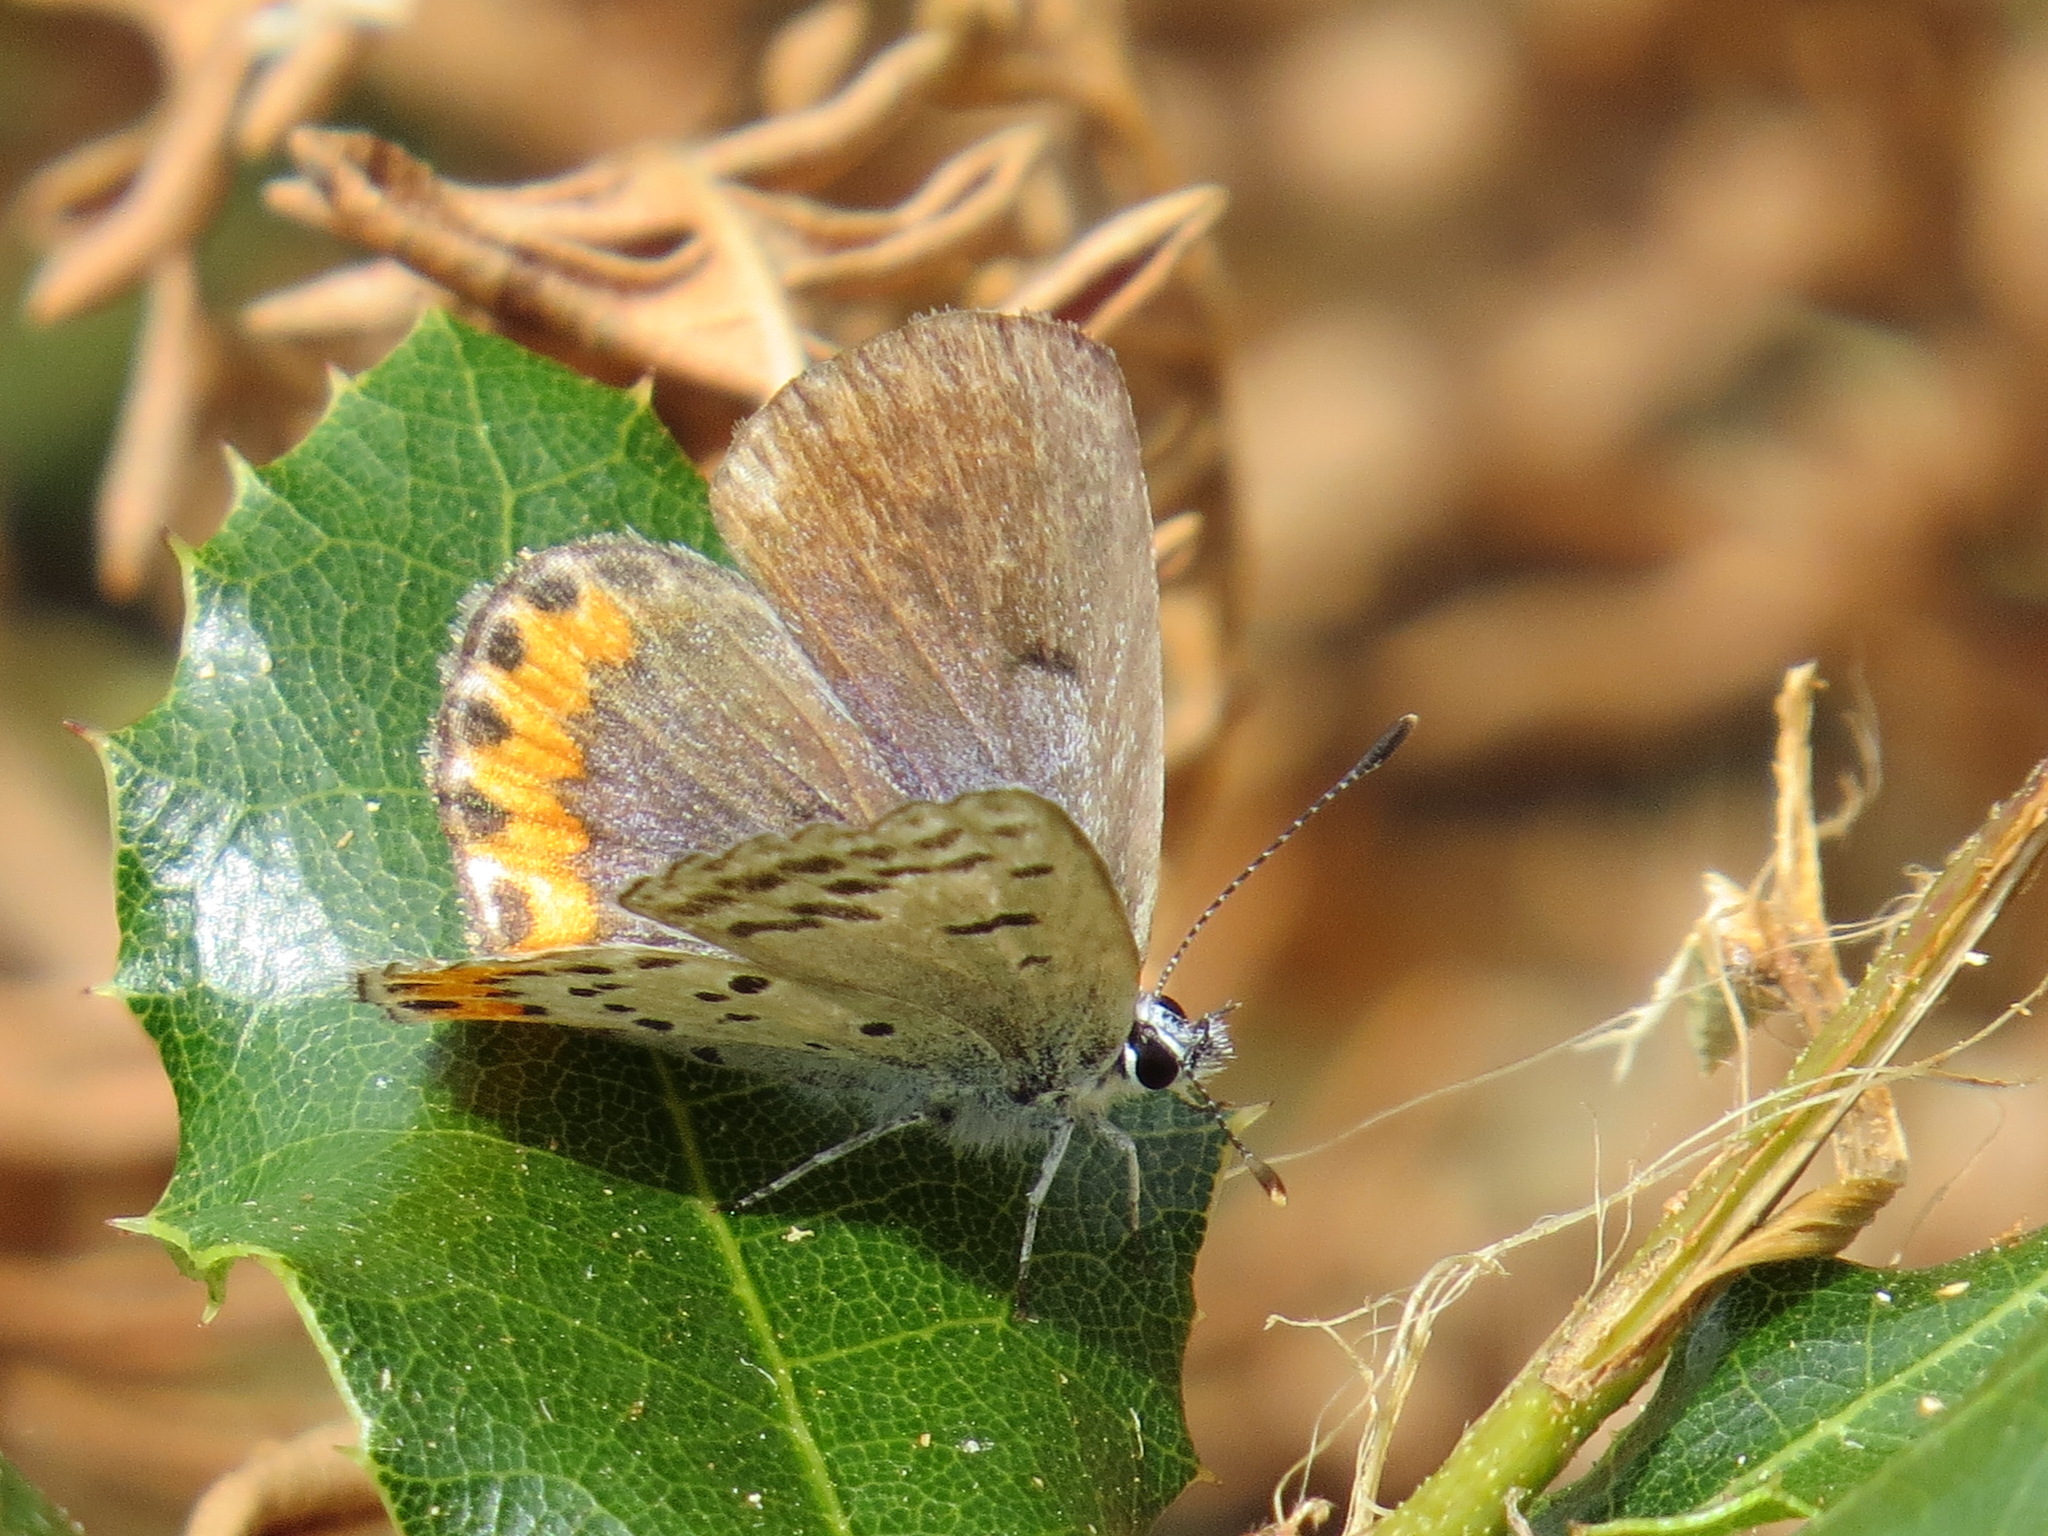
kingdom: Animalia
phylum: Arthropoda
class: Insecta
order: Lepidoptera
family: Lycaenidae
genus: Icaricia
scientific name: Icaricia acmon
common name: Acmon blue
